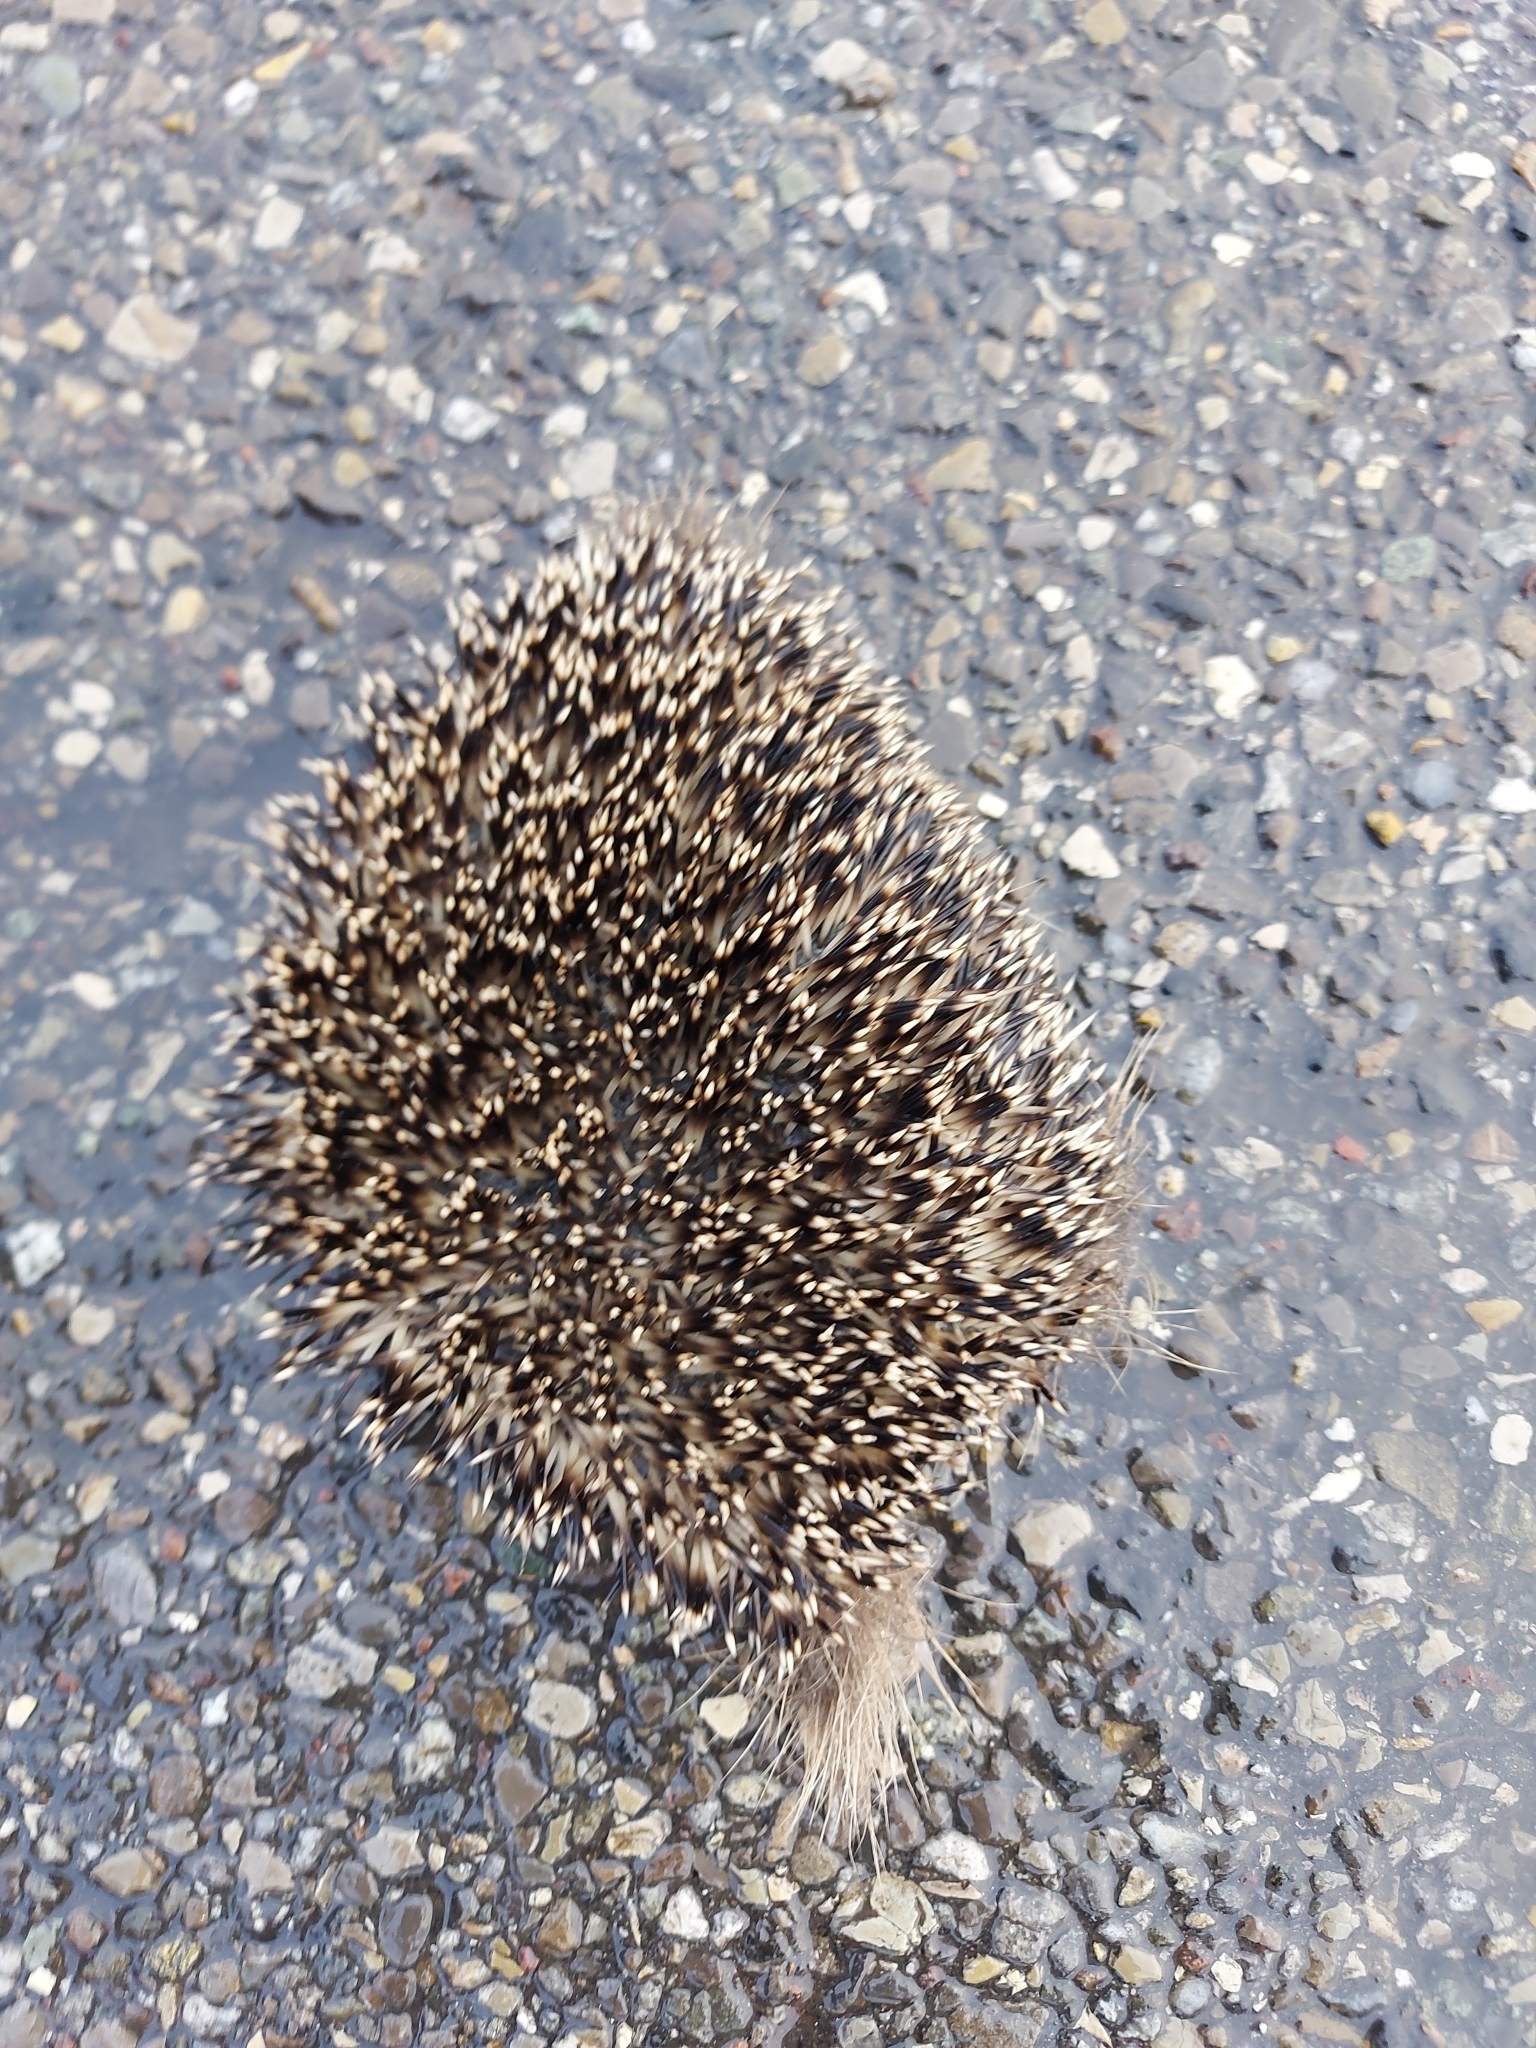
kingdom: Animalia
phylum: Chordata
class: Mammalia
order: Erinaceomorpha
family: Erinaceidae
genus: Erinaceus
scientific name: Erinaceus europaeus
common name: West european hedgehog
